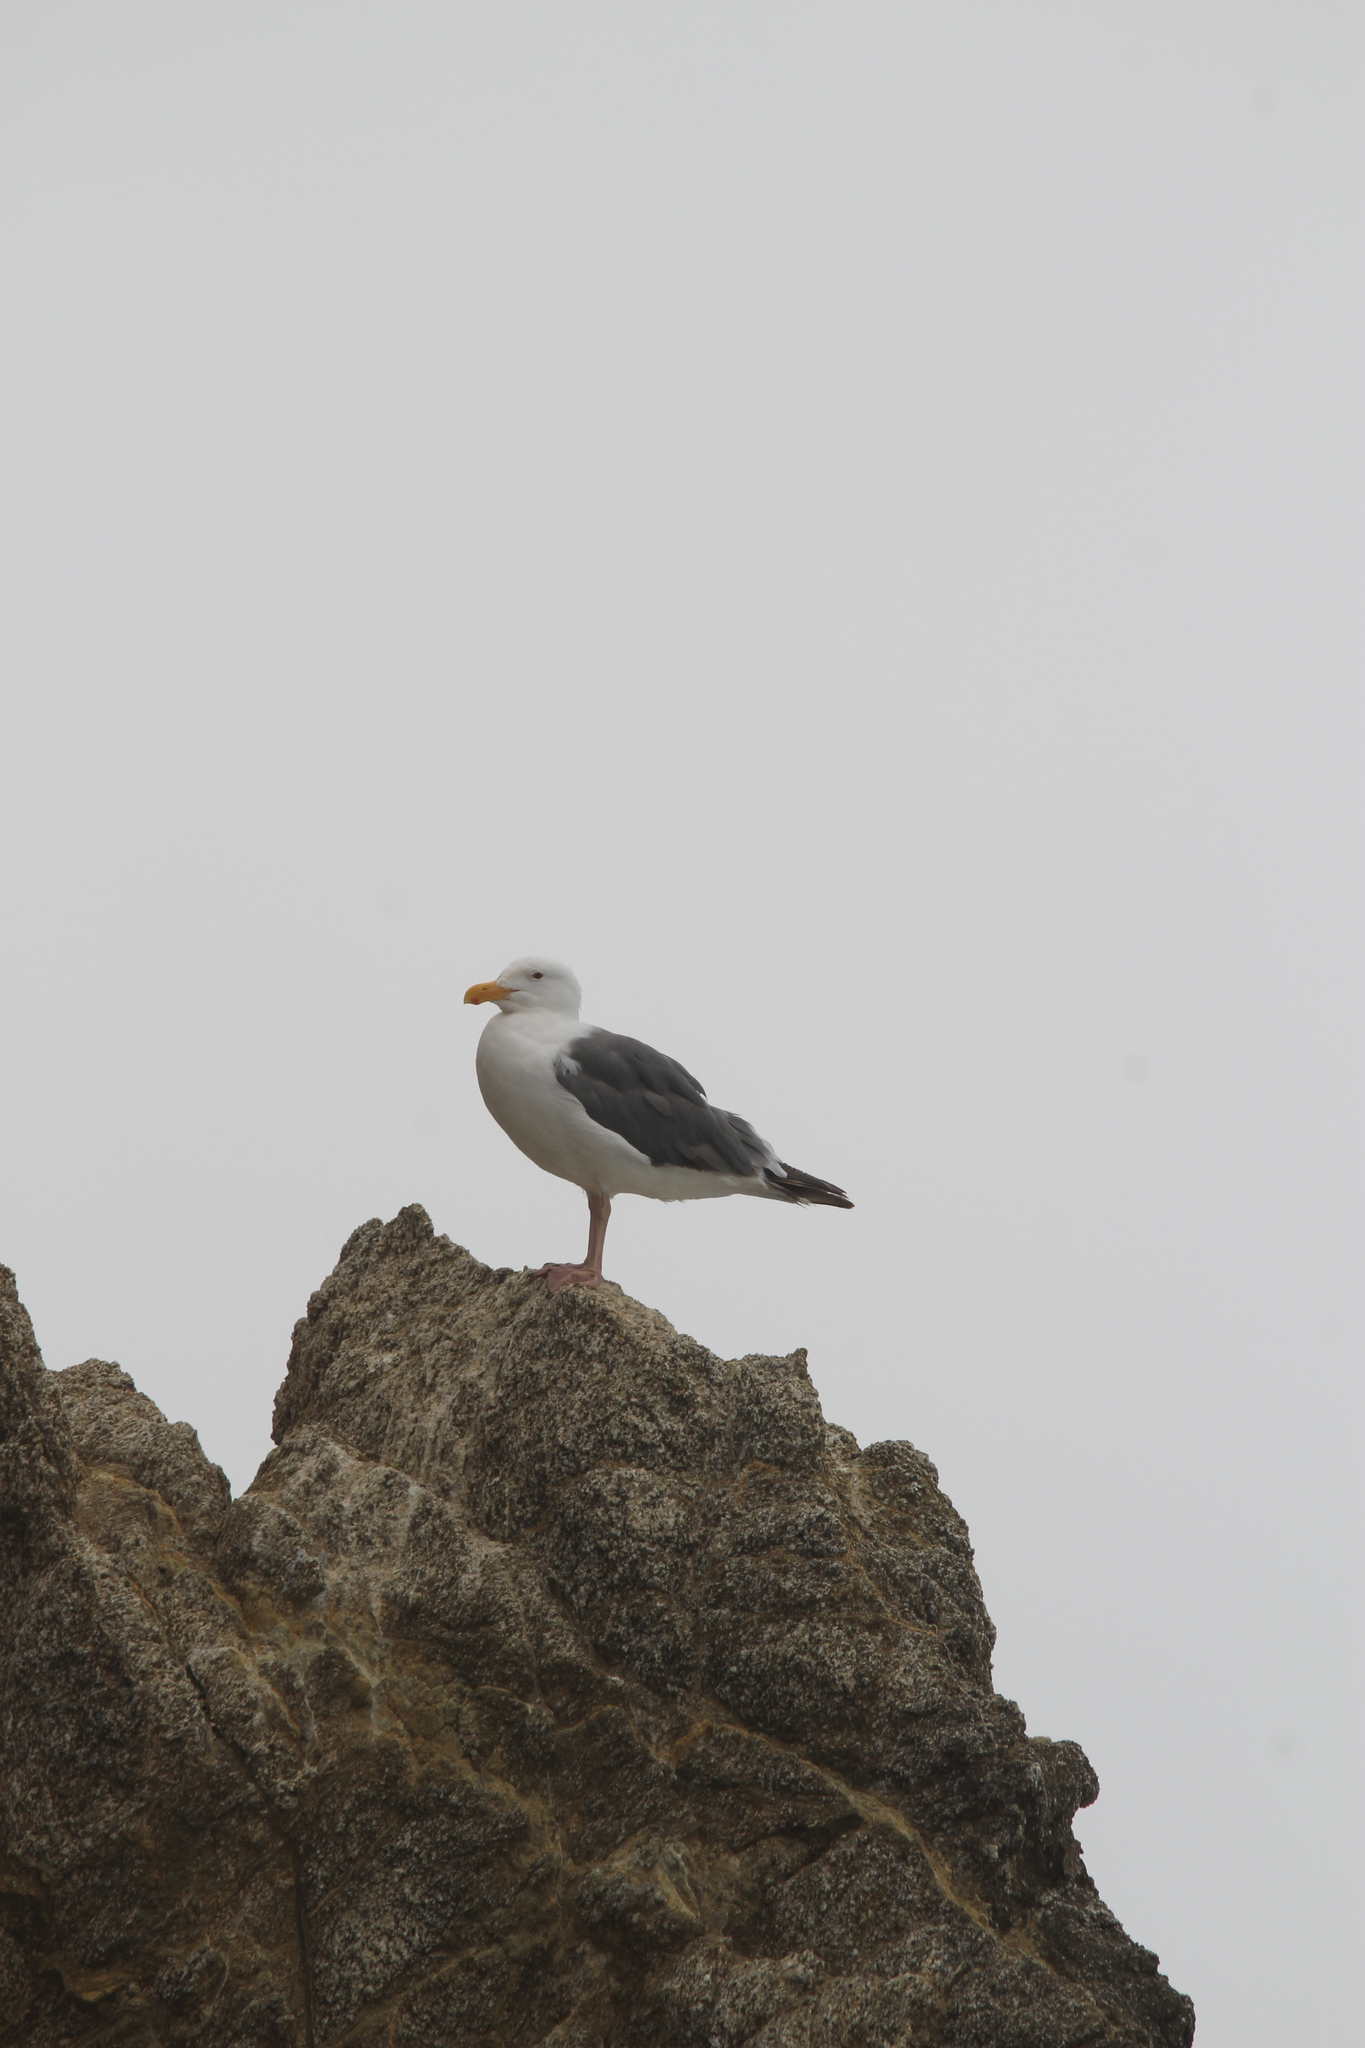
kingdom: Animalia
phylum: Chordata
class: Aves
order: Charadriiformes
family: Laridae
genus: Larus
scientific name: Larus occidentalis
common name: Western gull
